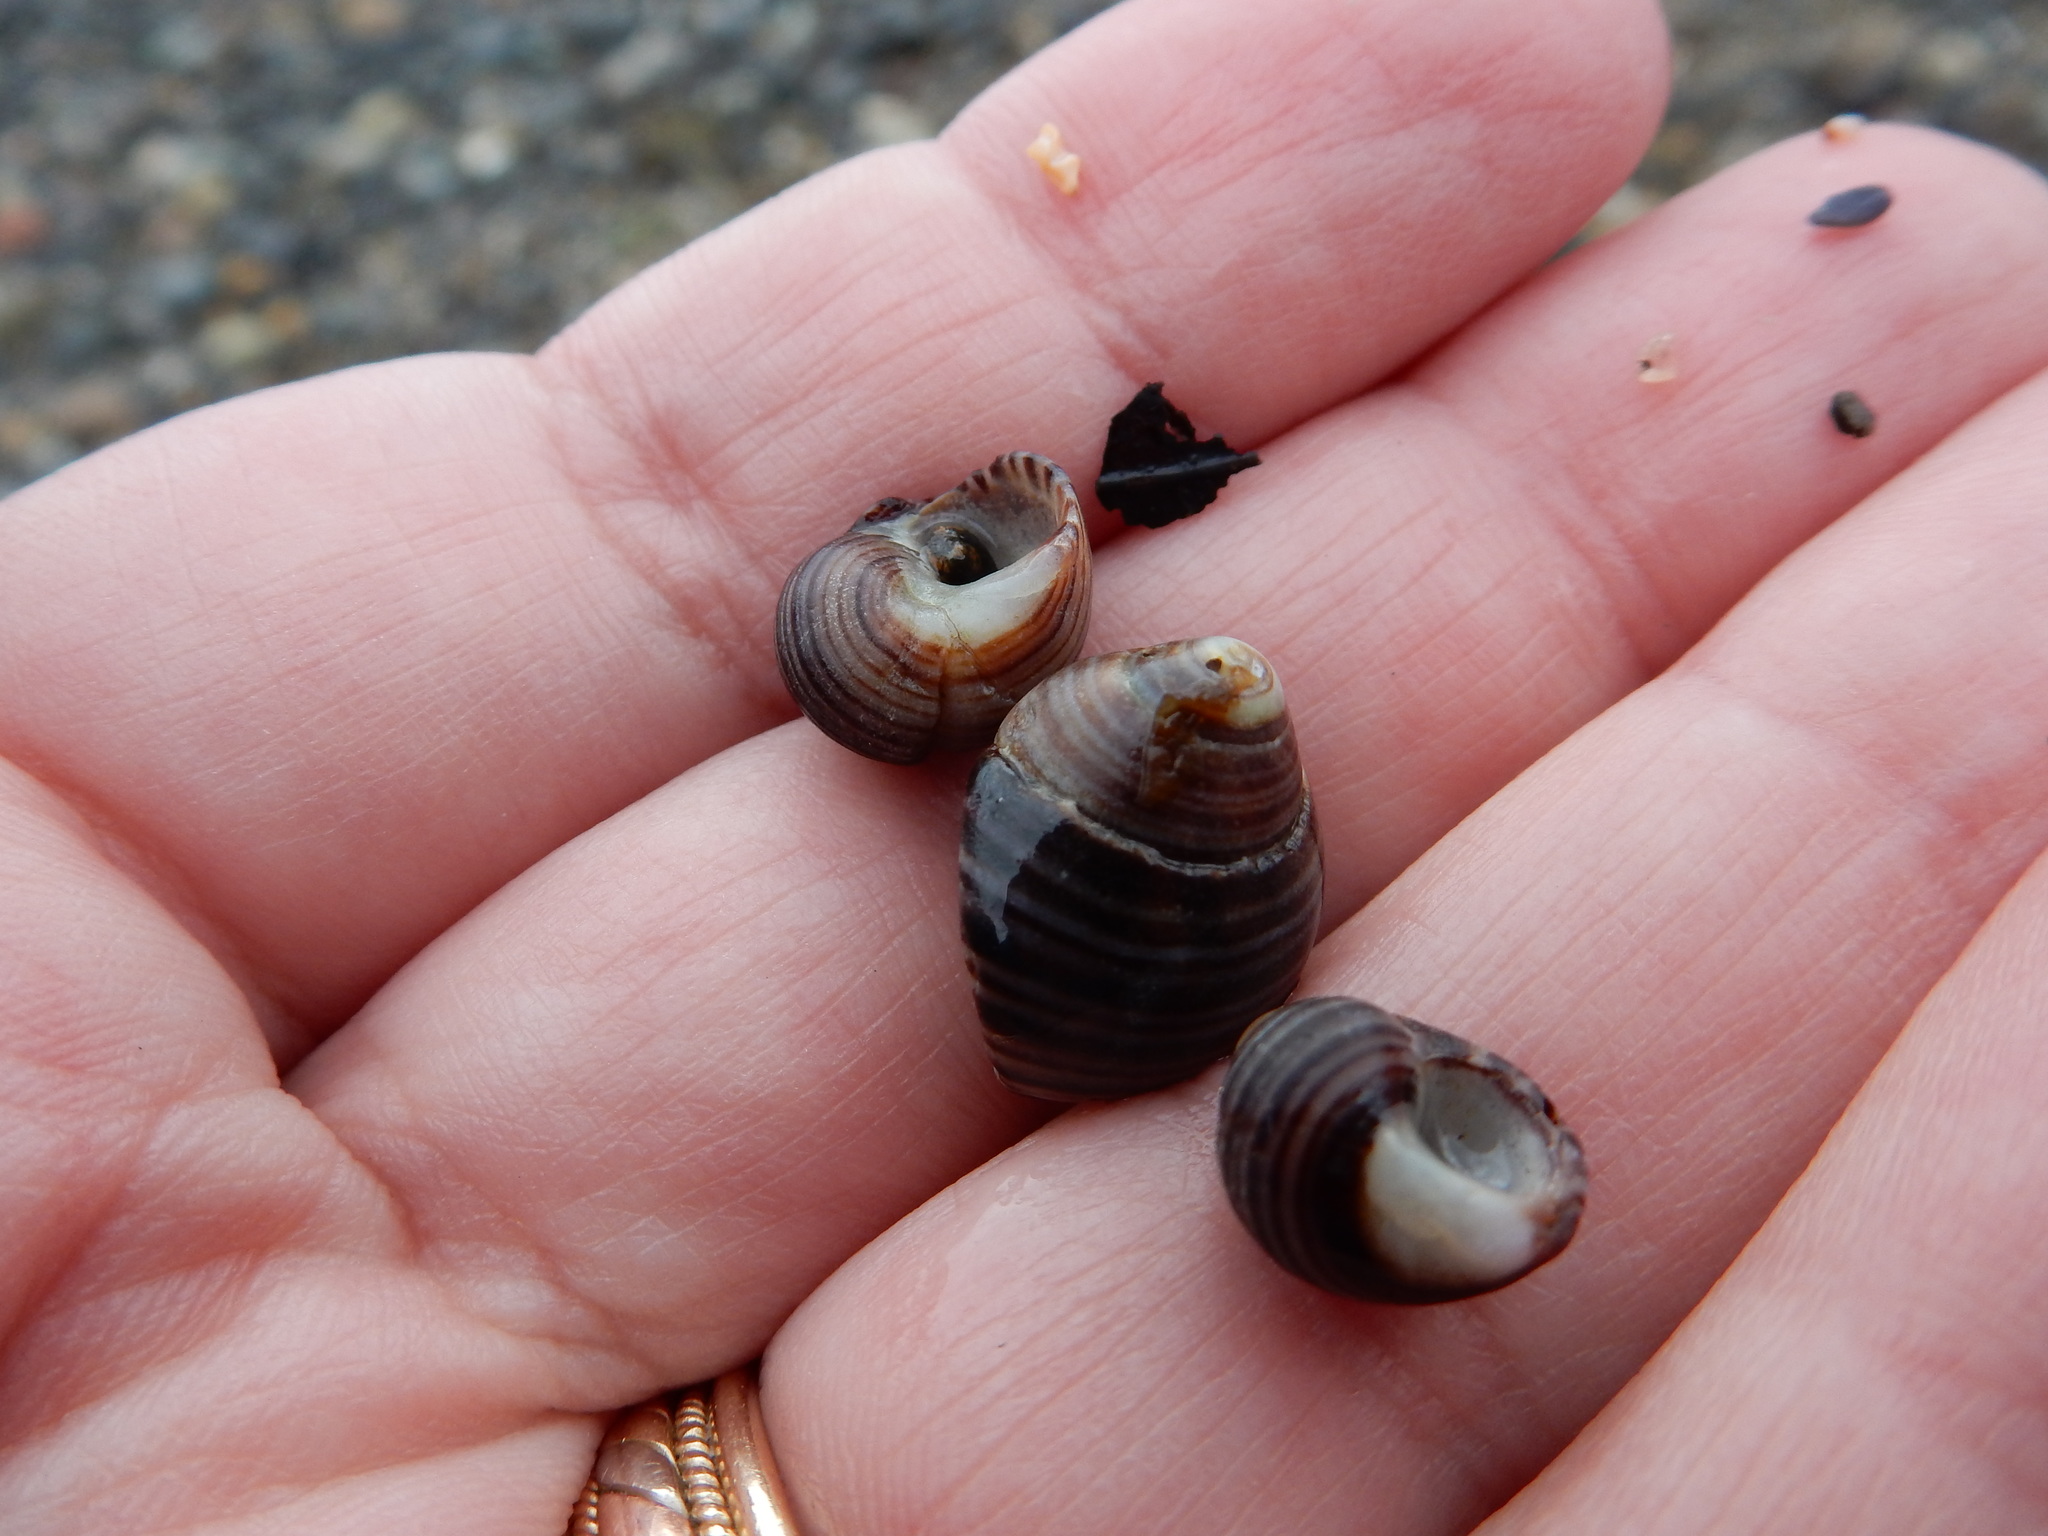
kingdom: Animalia
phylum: Mollusca
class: Gastropoda
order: Littorinimorpha
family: Littorinidae
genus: Littorina
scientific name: Littorina littorea
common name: Common periwinkle
